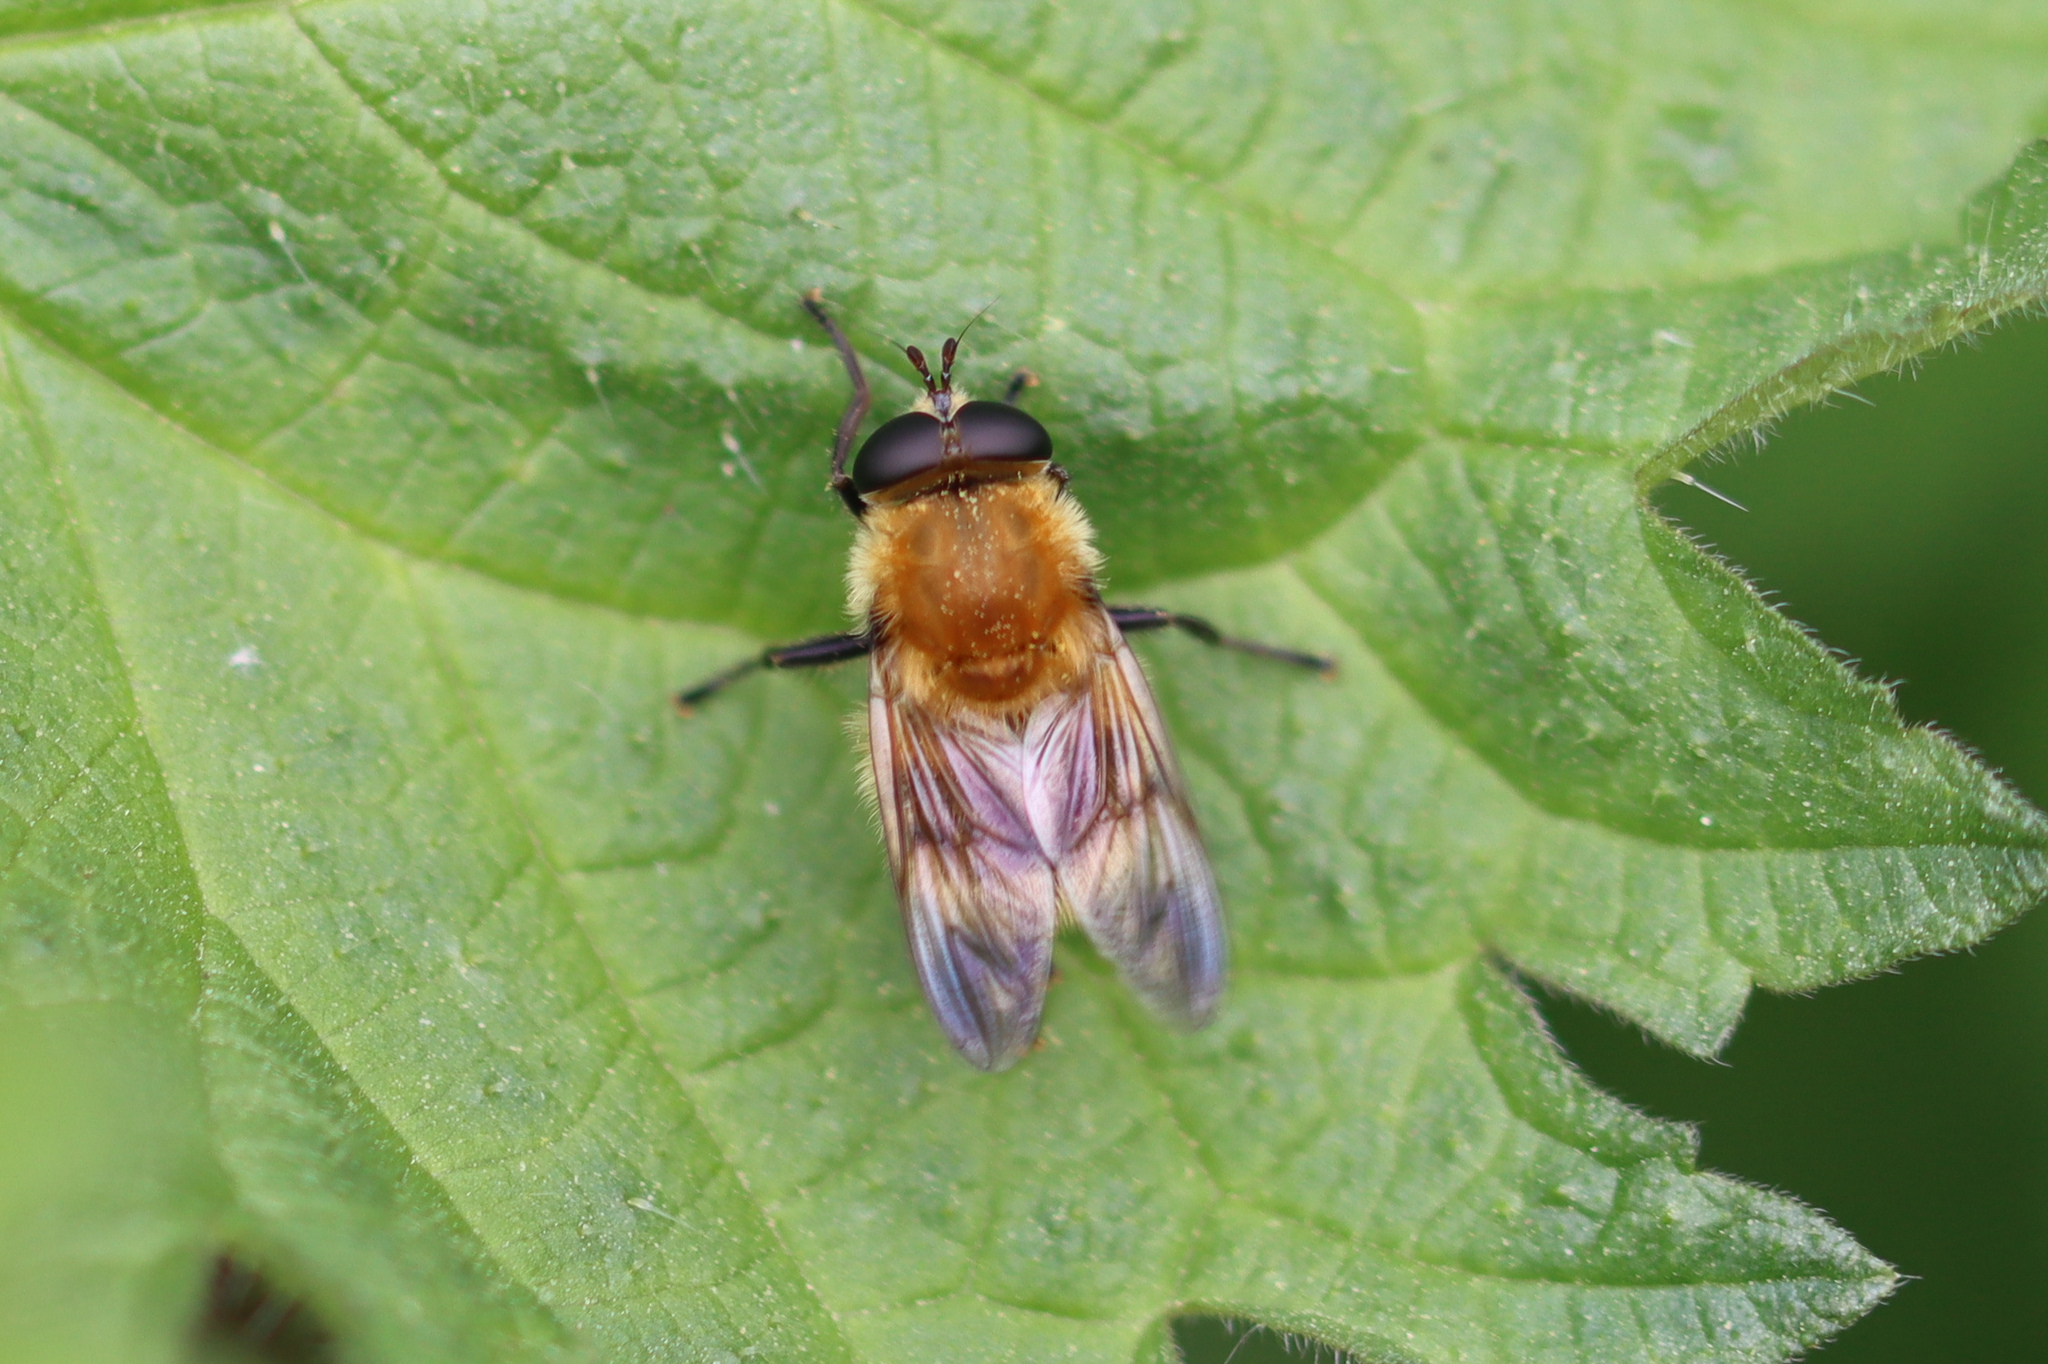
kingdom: Animalia
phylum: Arthropoda
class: Insecta
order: Diptera
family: Syrphidae
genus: Criorhina
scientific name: Criorhina berberina
